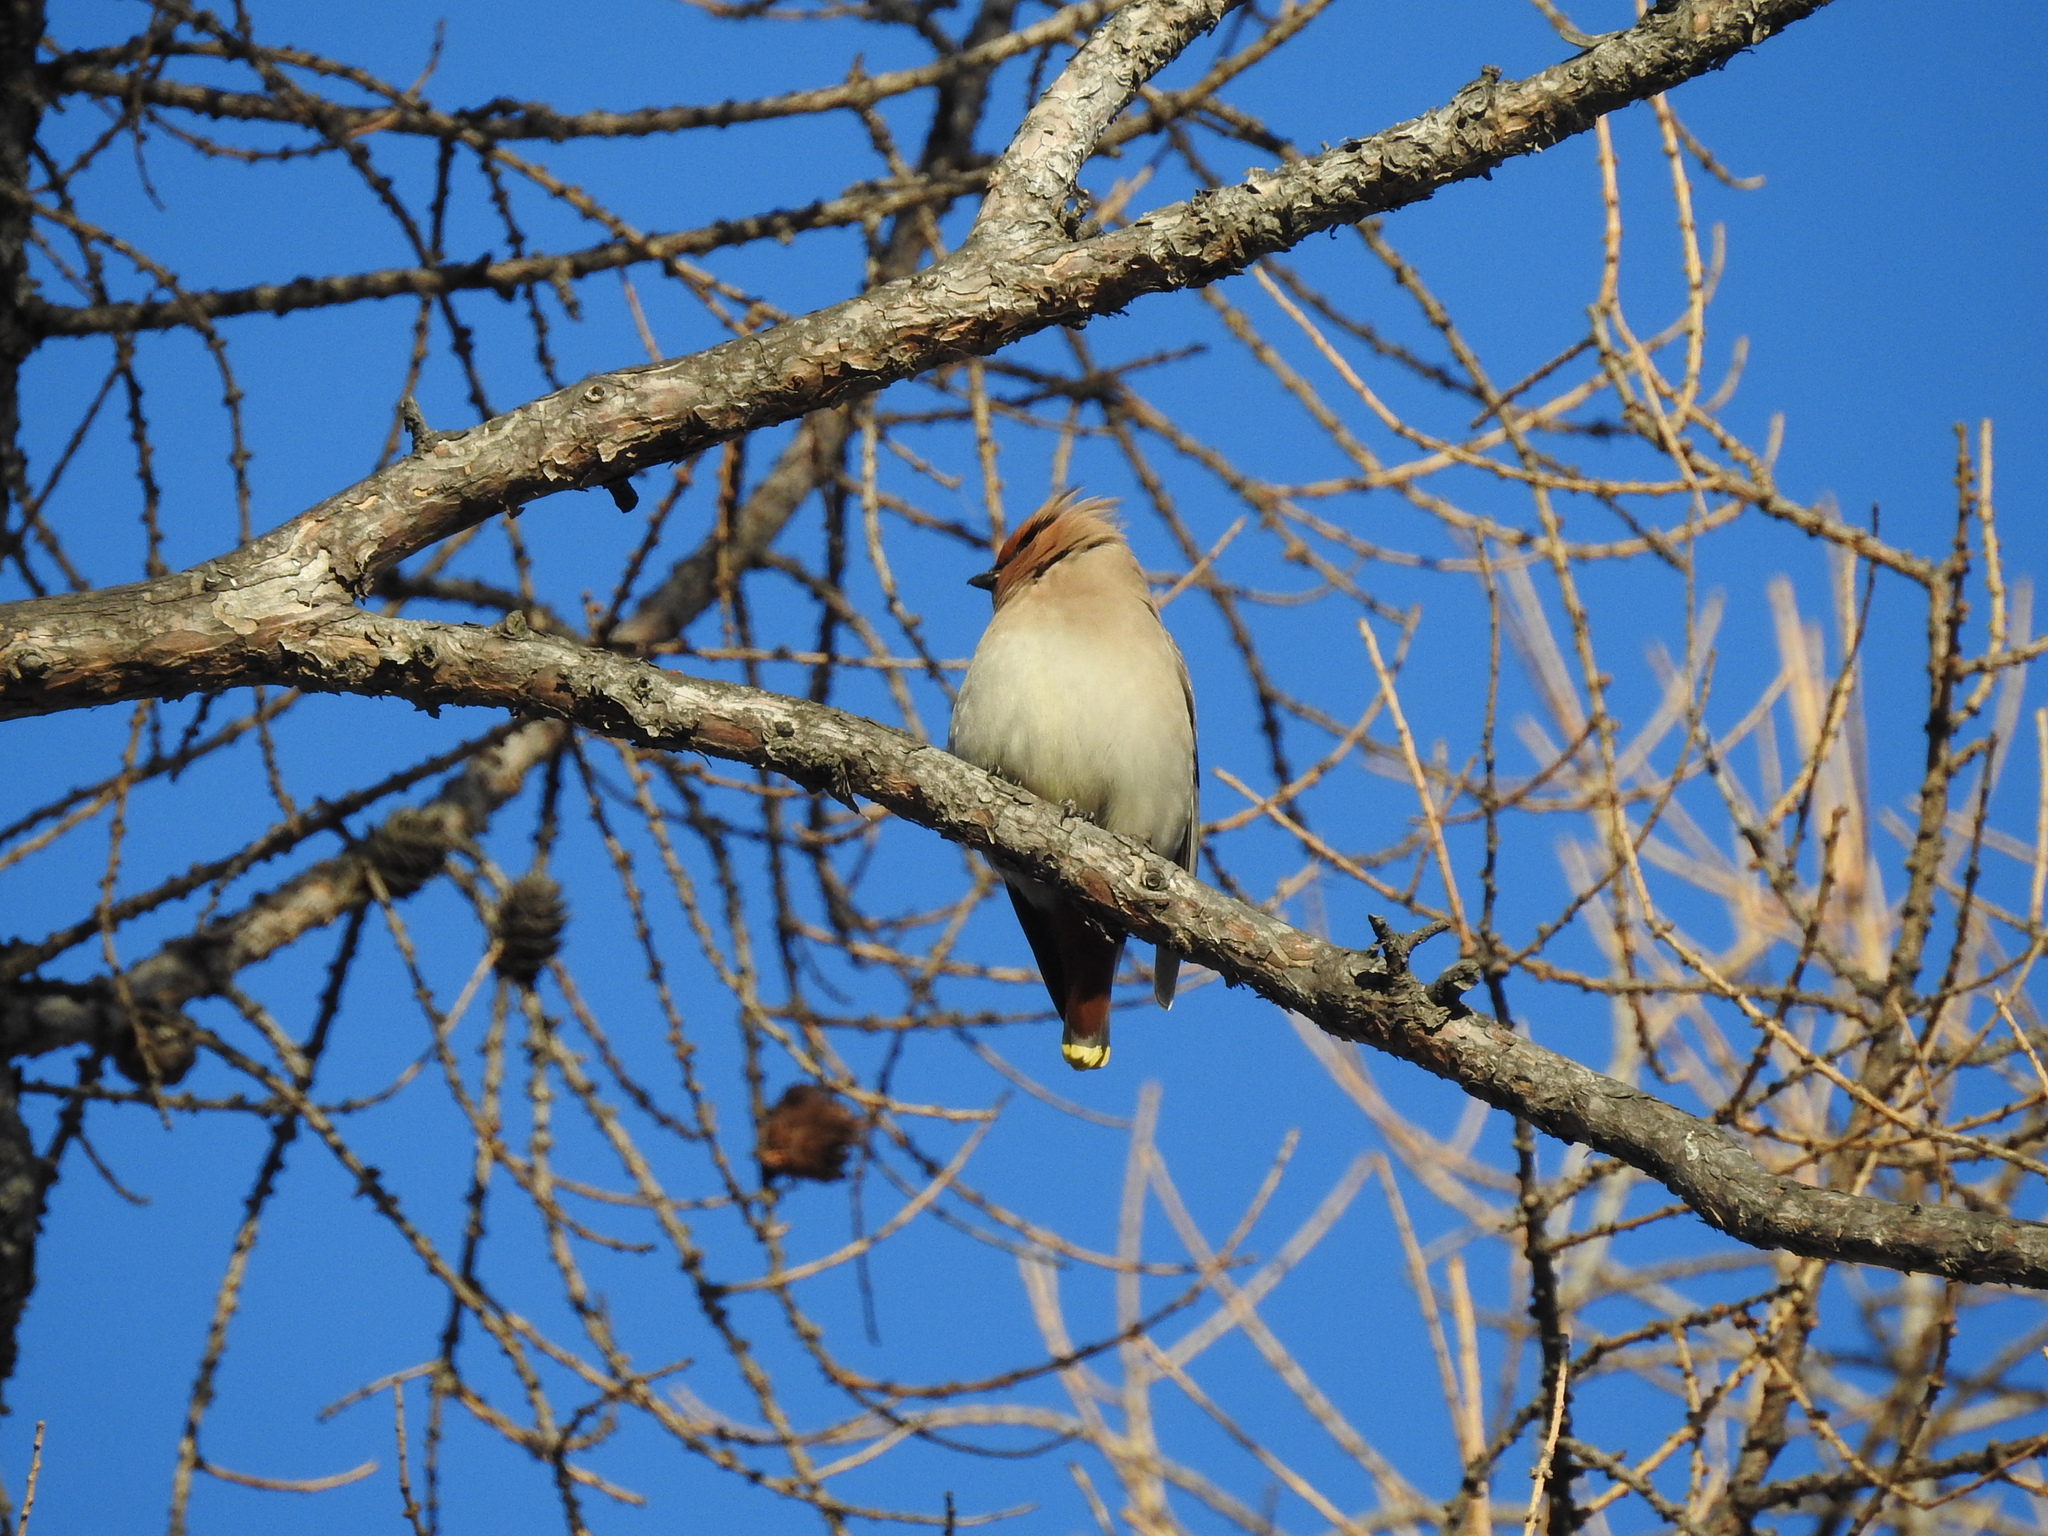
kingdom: Animalia
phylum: Chordata
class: Aves
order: Passeriformes
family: Bombycillidae
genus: Bombycilla
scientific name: Bombycilla garrulus
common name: Bohemian waxwing
